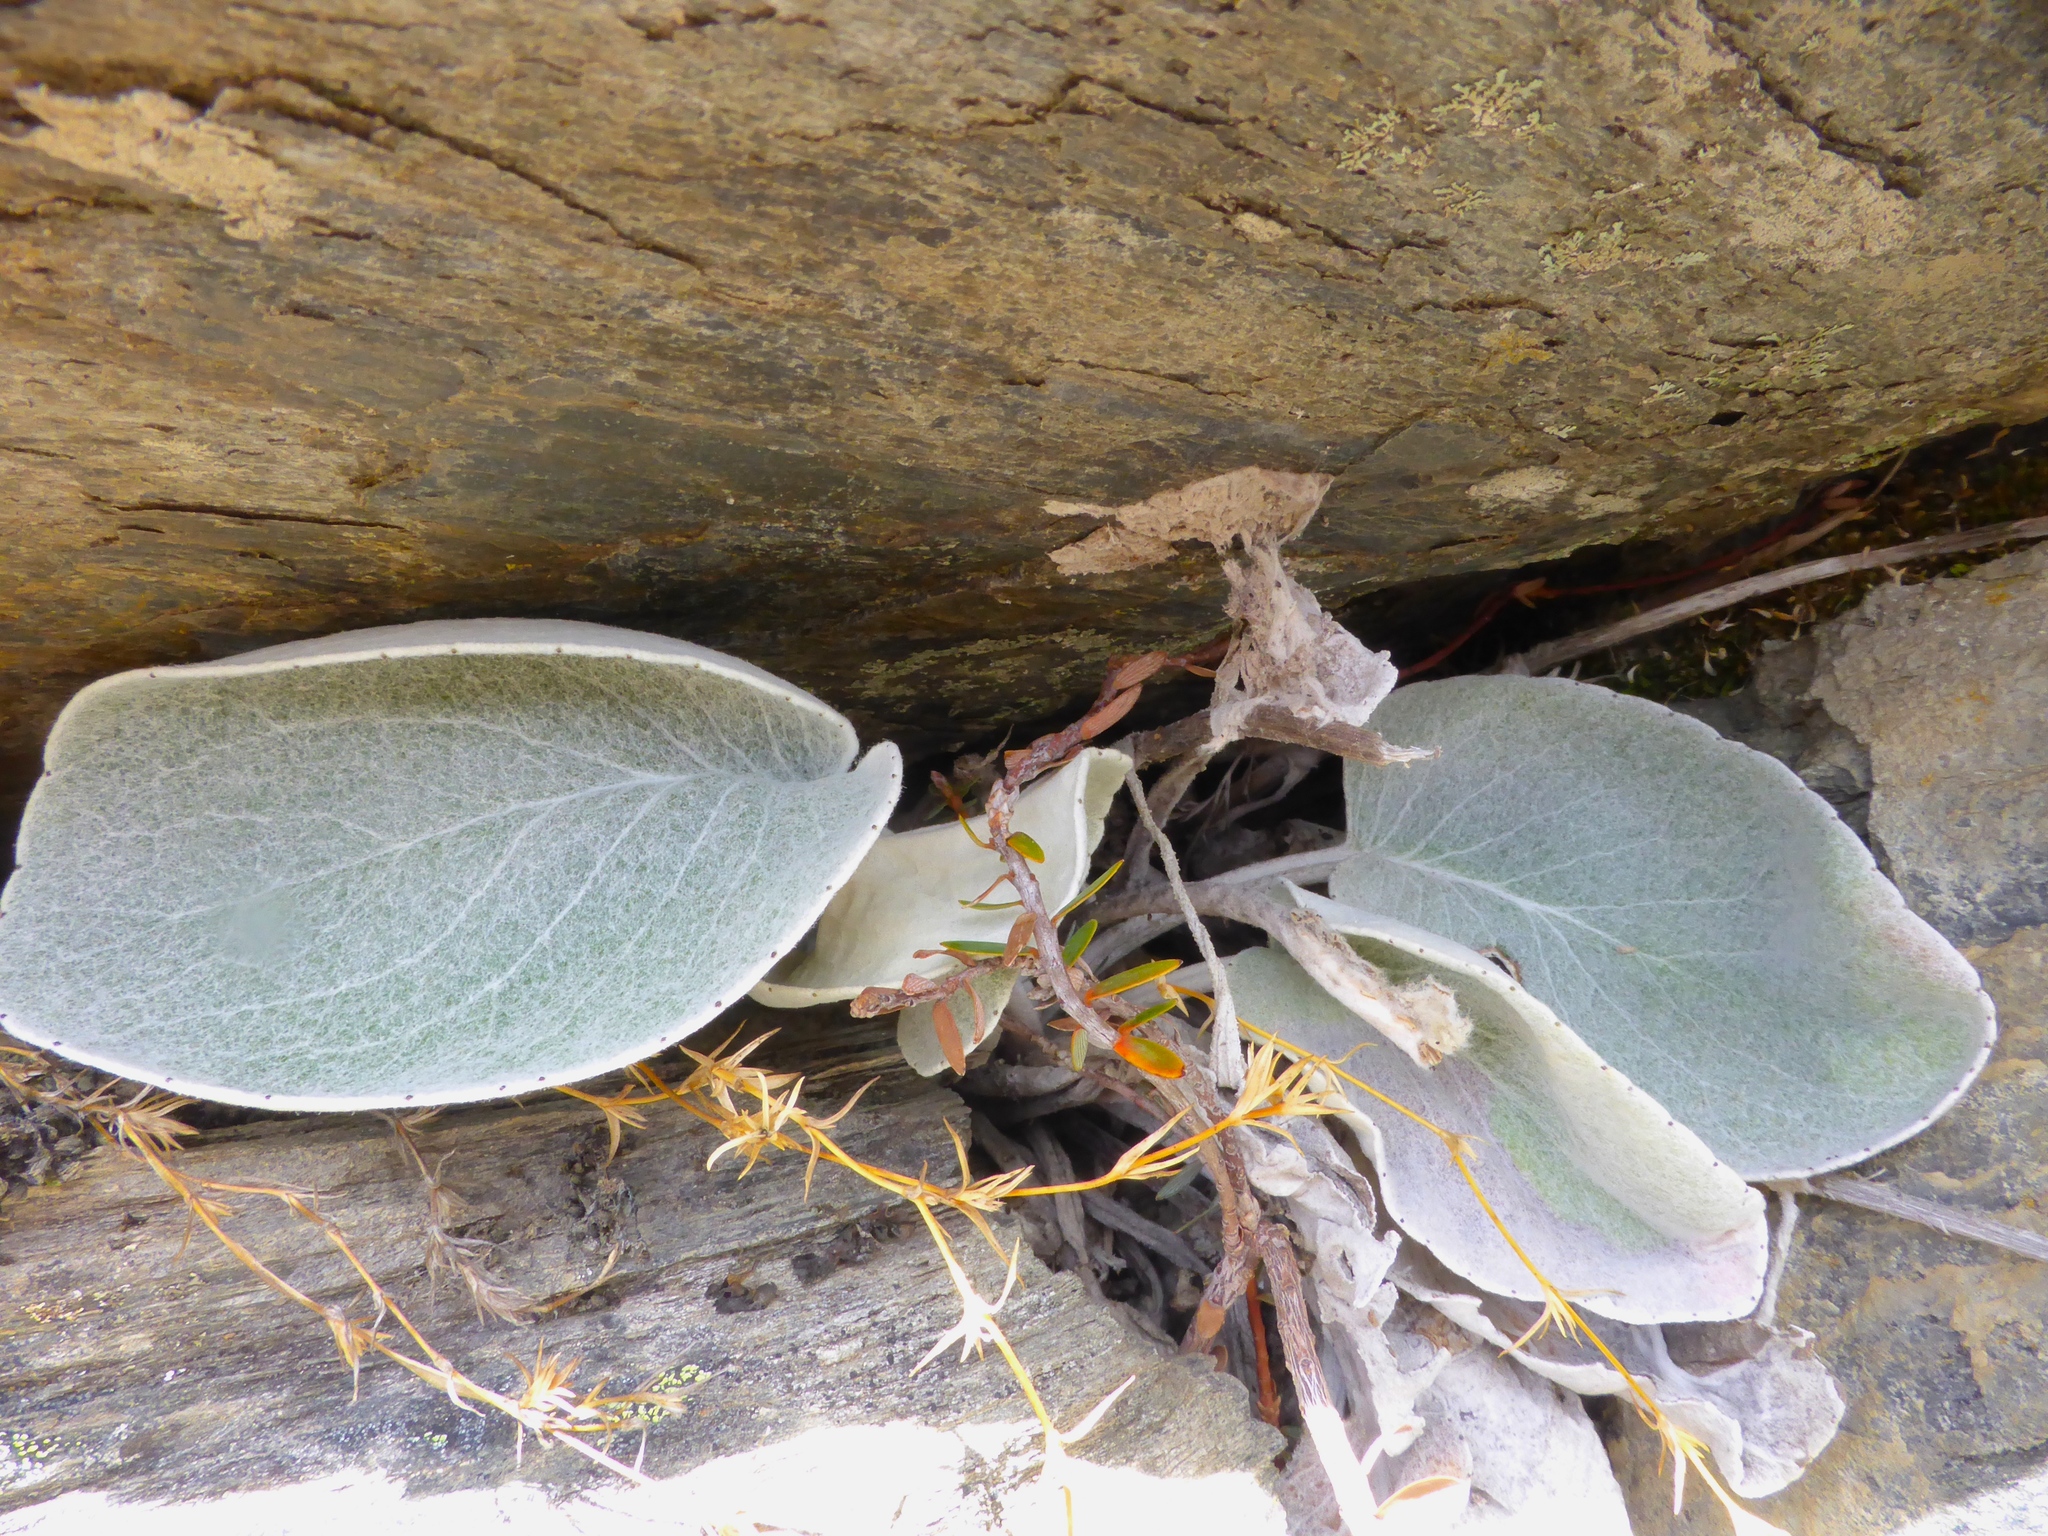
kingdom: Plantae
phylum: Tracheophyta
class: Magnoliopsida
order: Asterales
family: Asteraceae
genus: Brachyglottis
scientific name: Brachyglottis haastii
